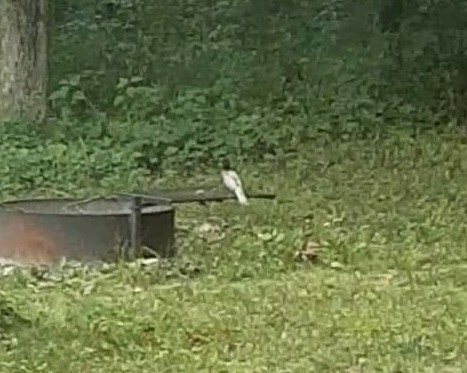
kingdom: Animalia
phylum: Chordata
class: Aves
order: Passeriformes
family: Turdidae
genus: Turdus
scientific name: Turdus migratorius
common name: American robin
